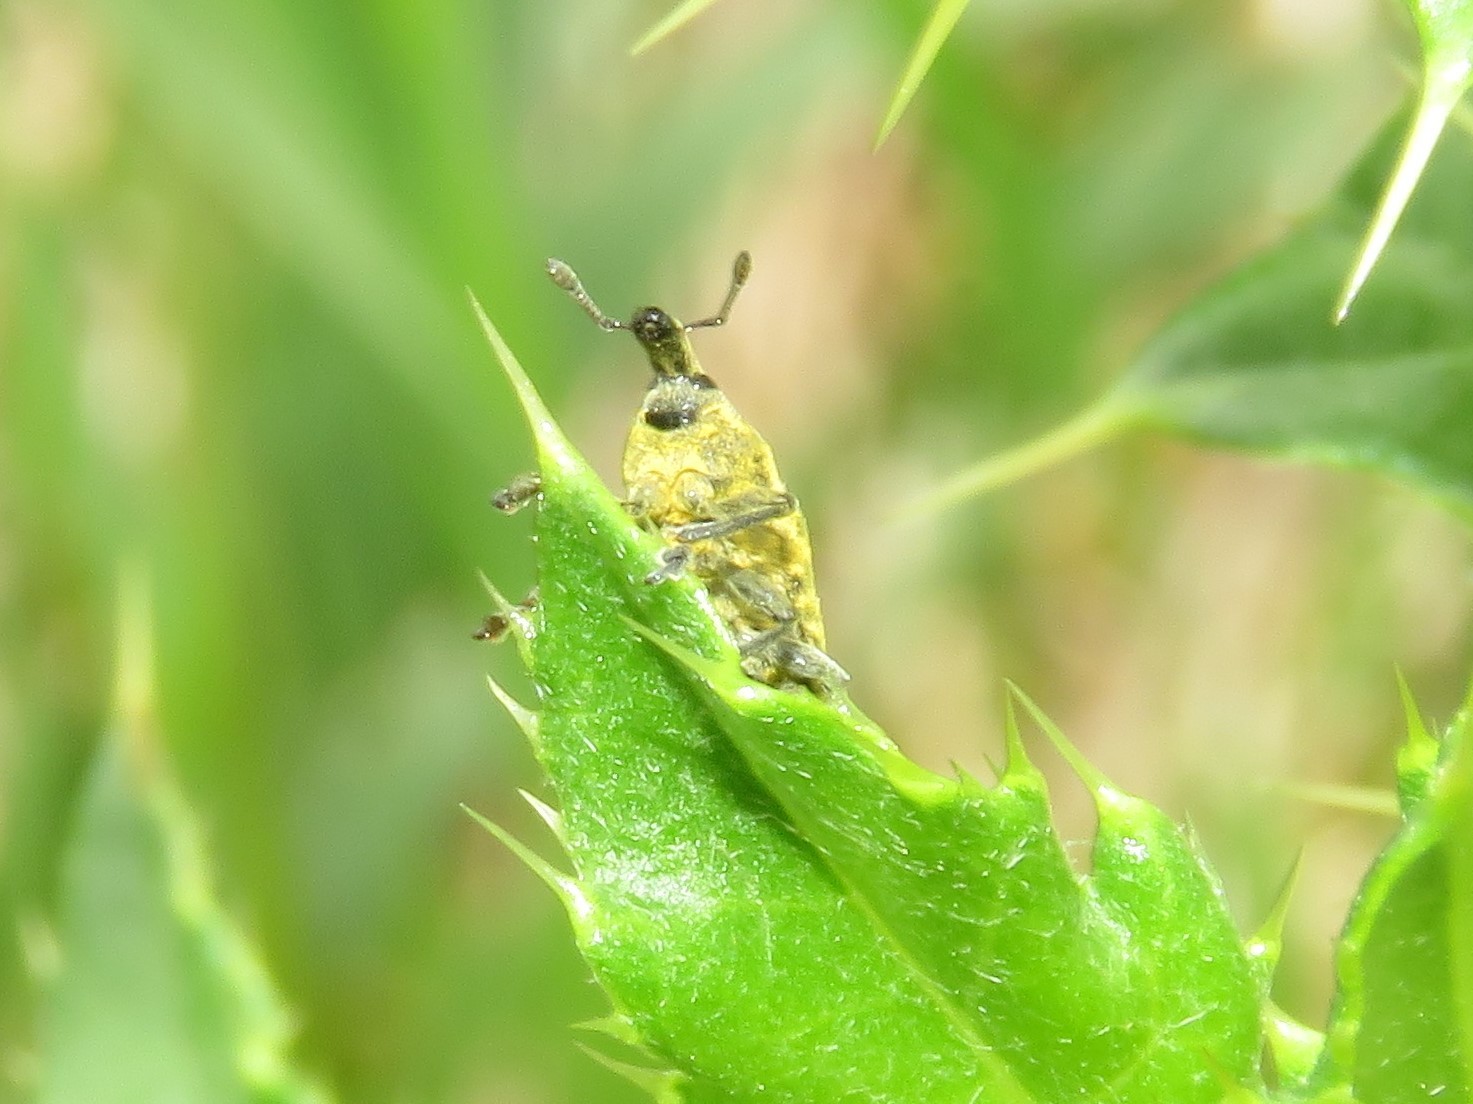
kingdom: Animalia
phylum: Arthropoda
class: Insecta
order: Coleoptera
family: Curculionidae
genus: Larinus
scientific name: Larinus carlinae
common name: Weevil
